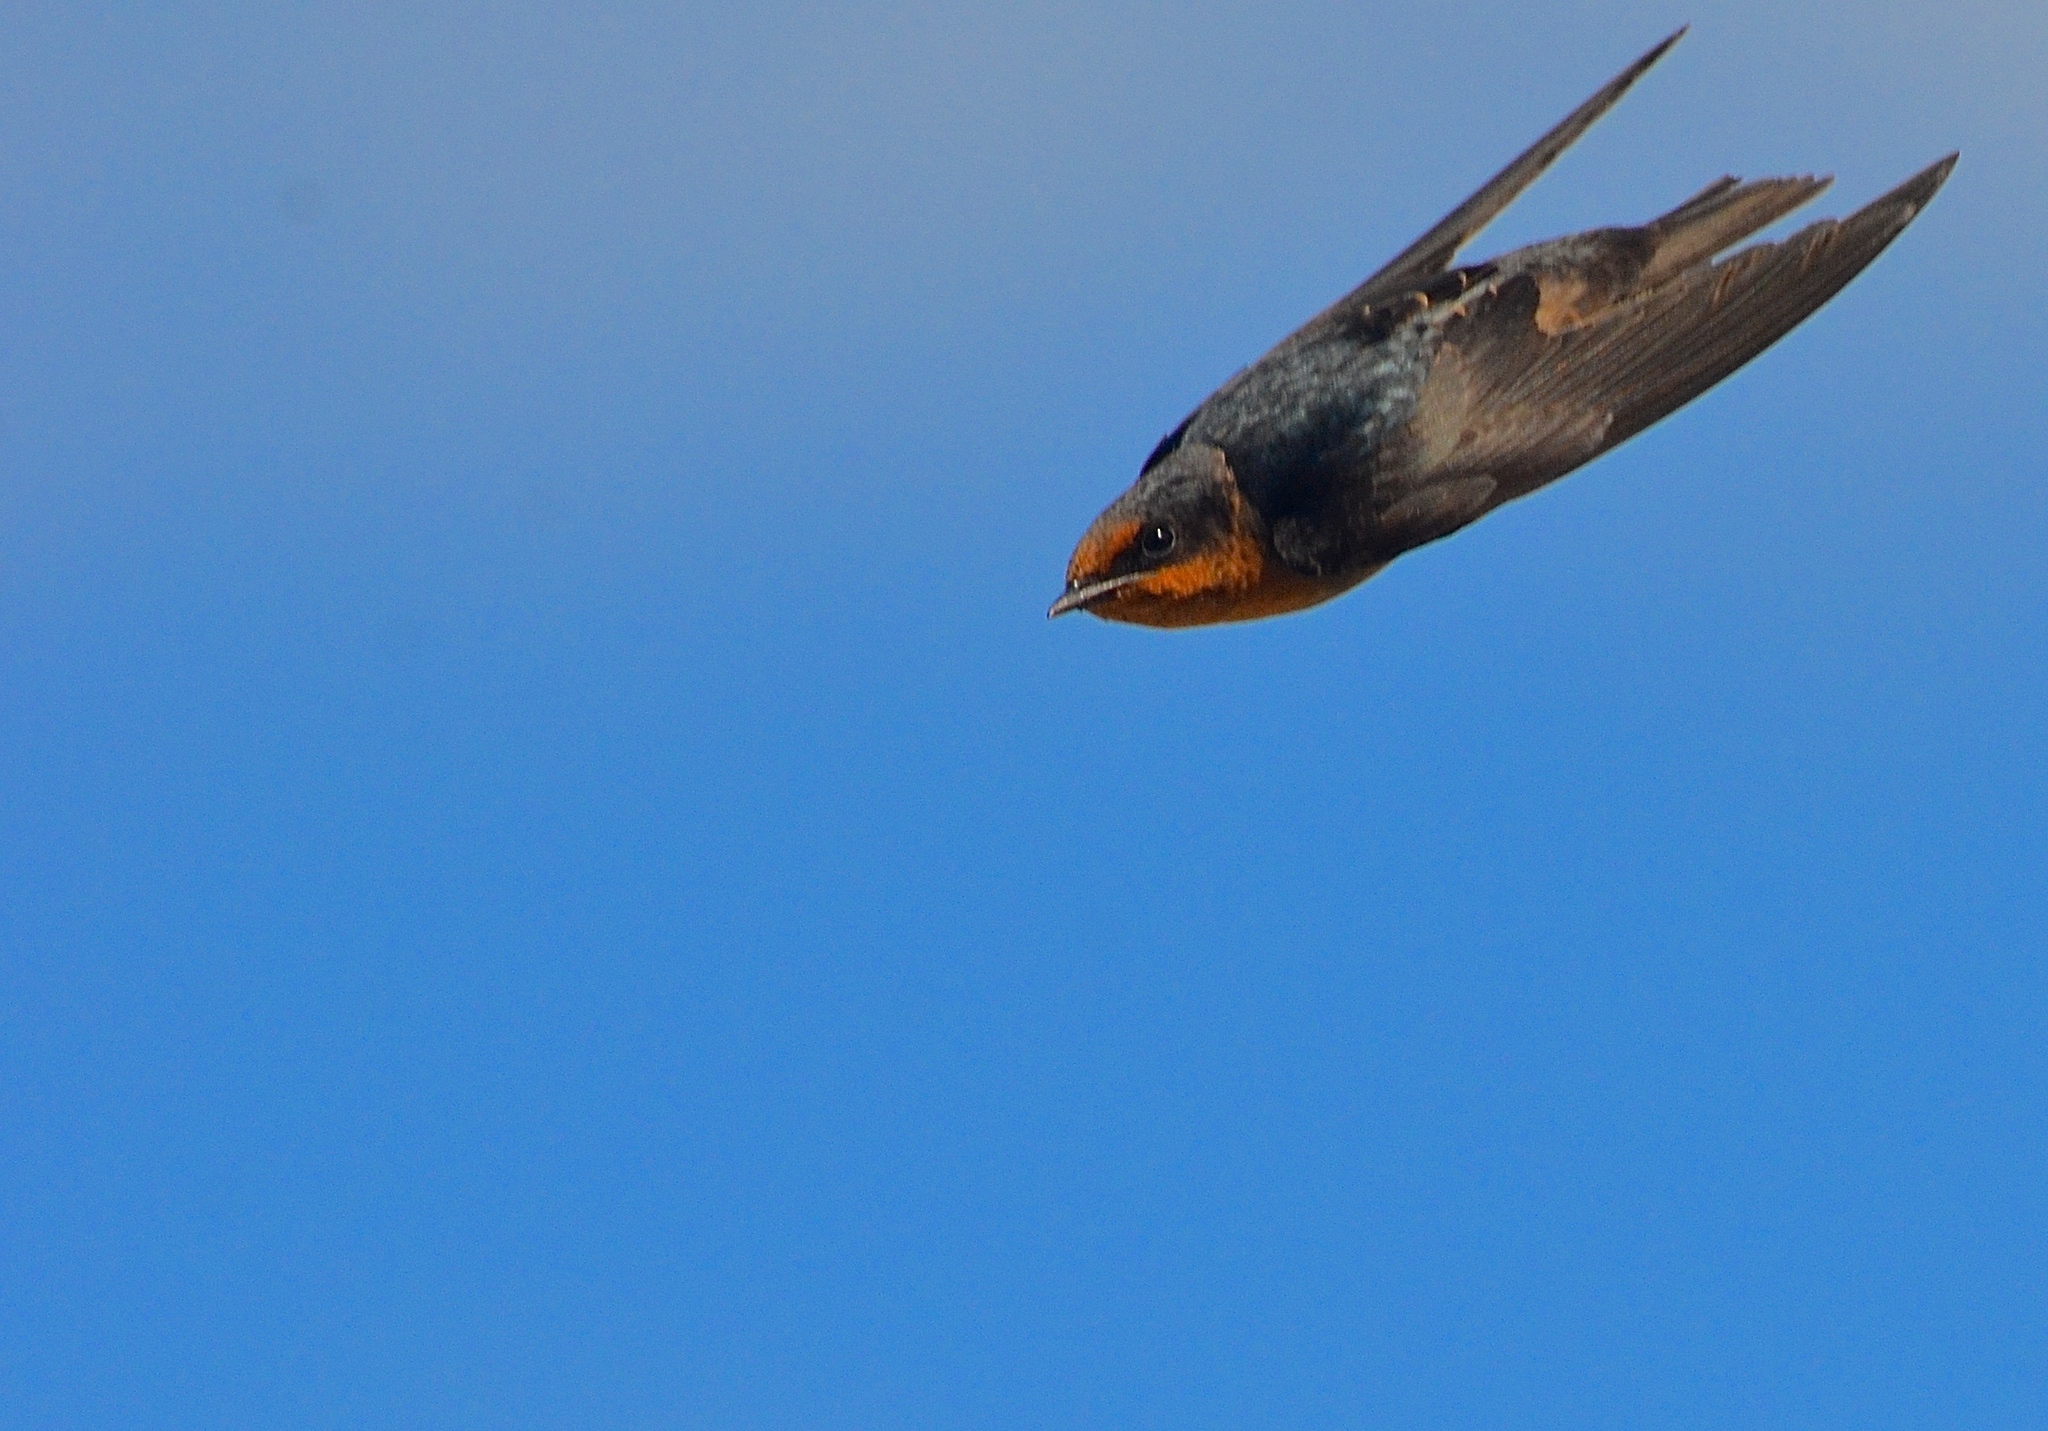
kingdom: Animalia
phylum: Chordata
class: Aves
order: Passeriformes
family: Hirundinidae
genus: Hirundo
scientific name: Hirundo tahitica
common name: Pacific swallow
